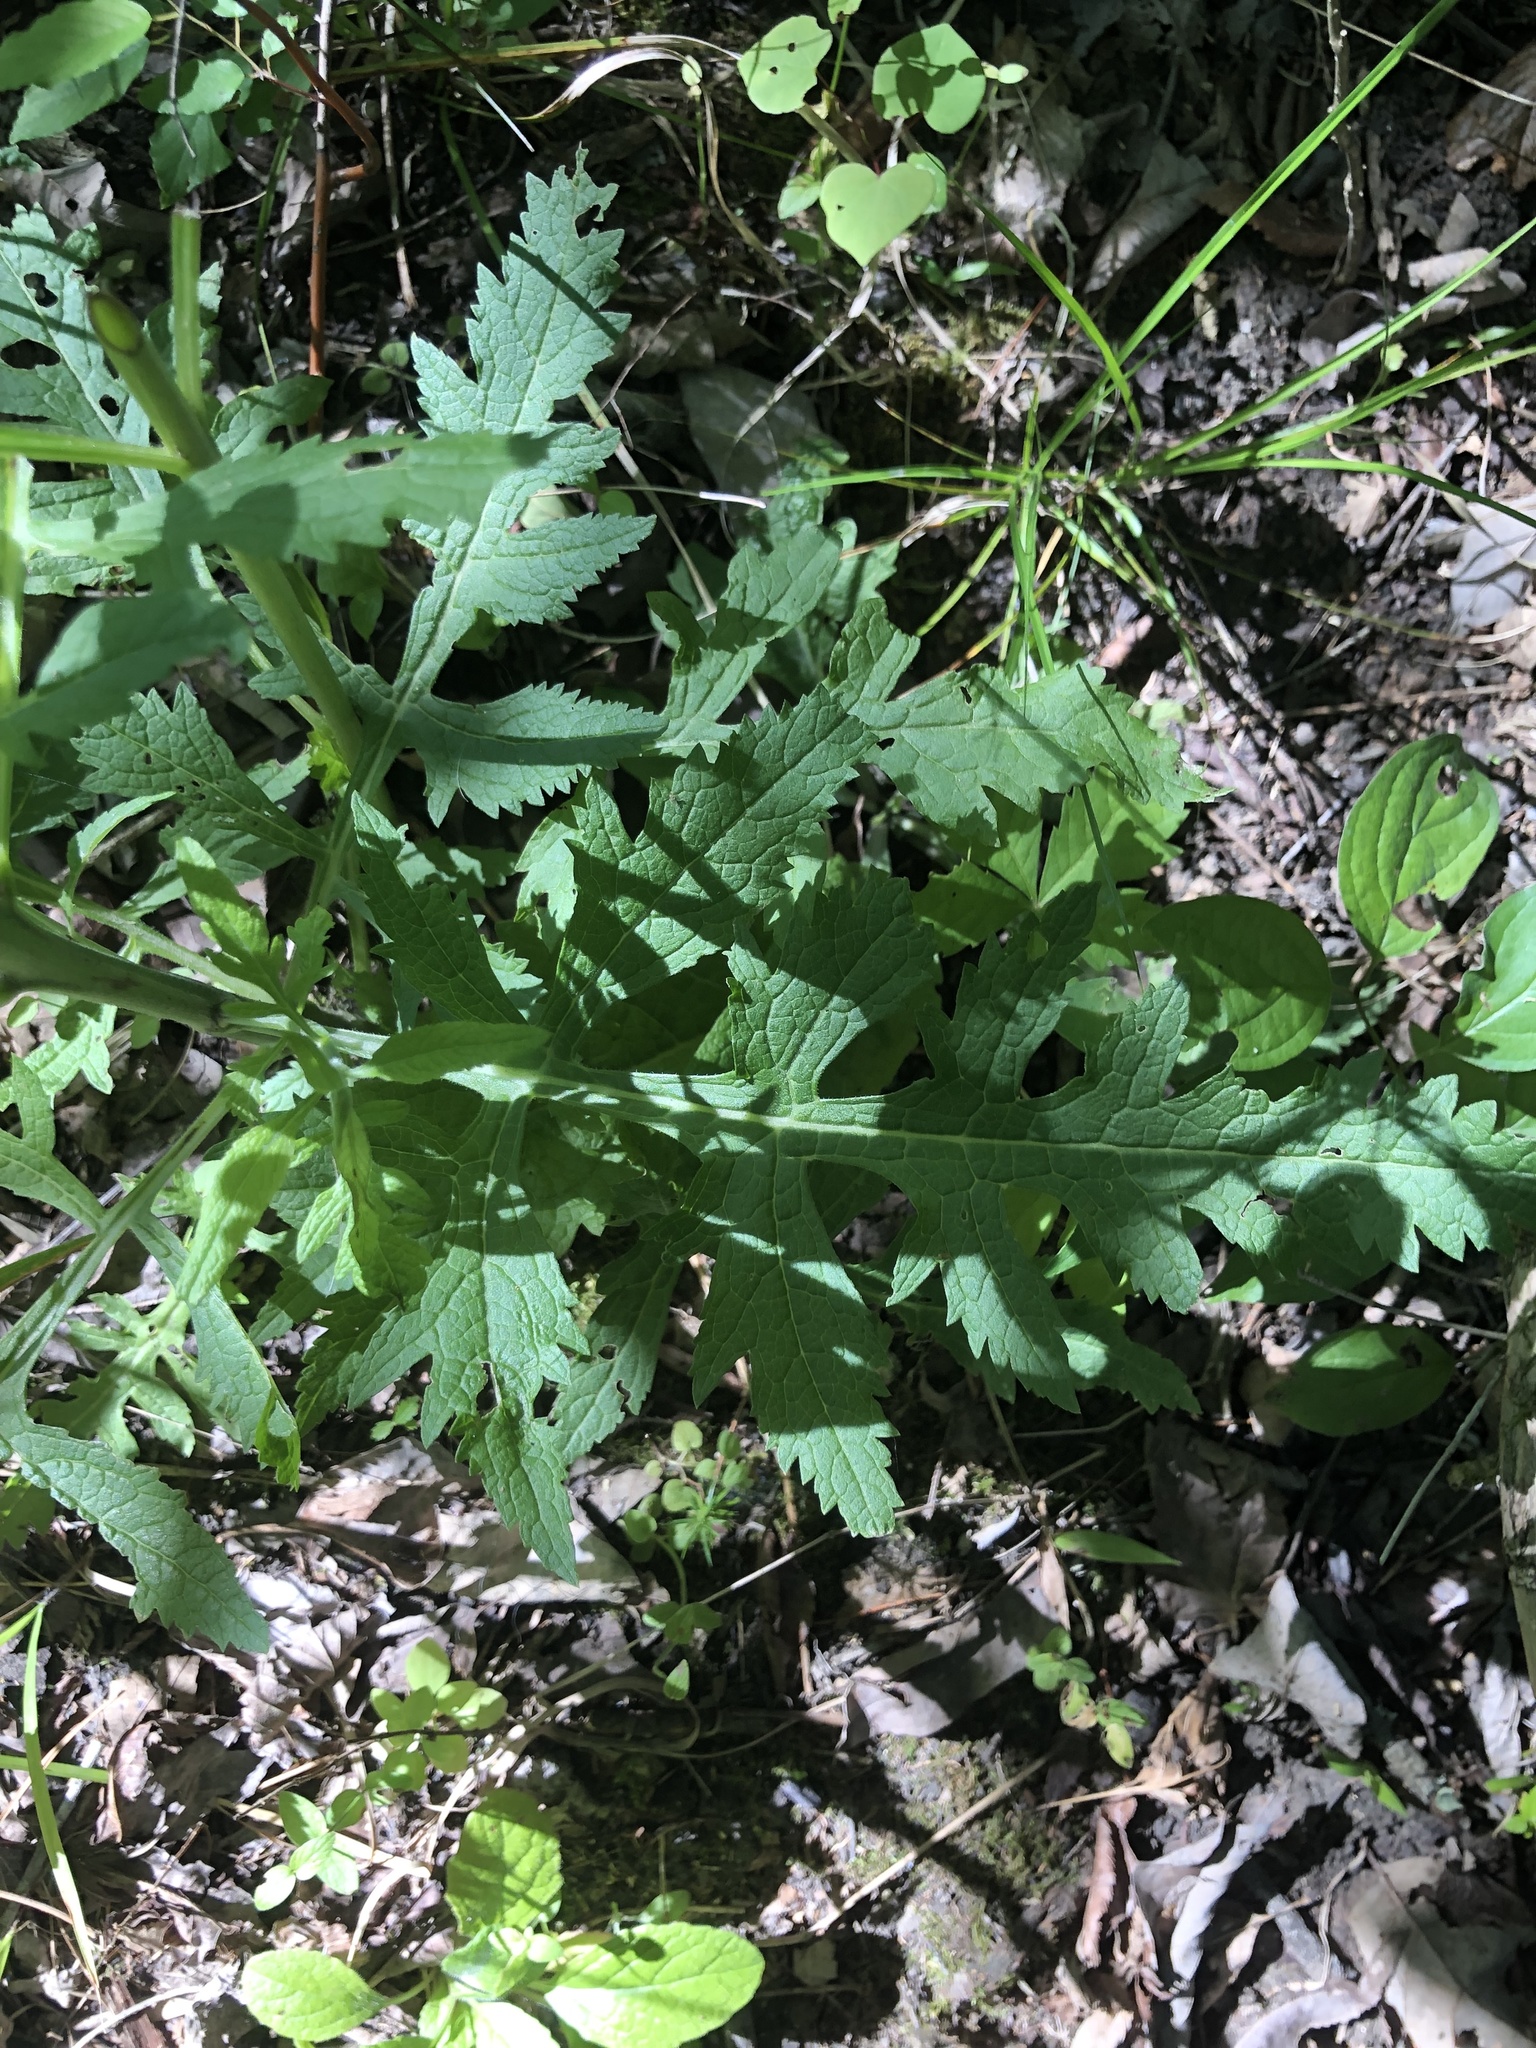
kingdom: Plantae
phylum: Tracheophyta
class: Magnoliopsida
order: Lamiales
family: Orobanchaceae
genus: Dasistoma
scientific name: Dasistoma macrophyllum
